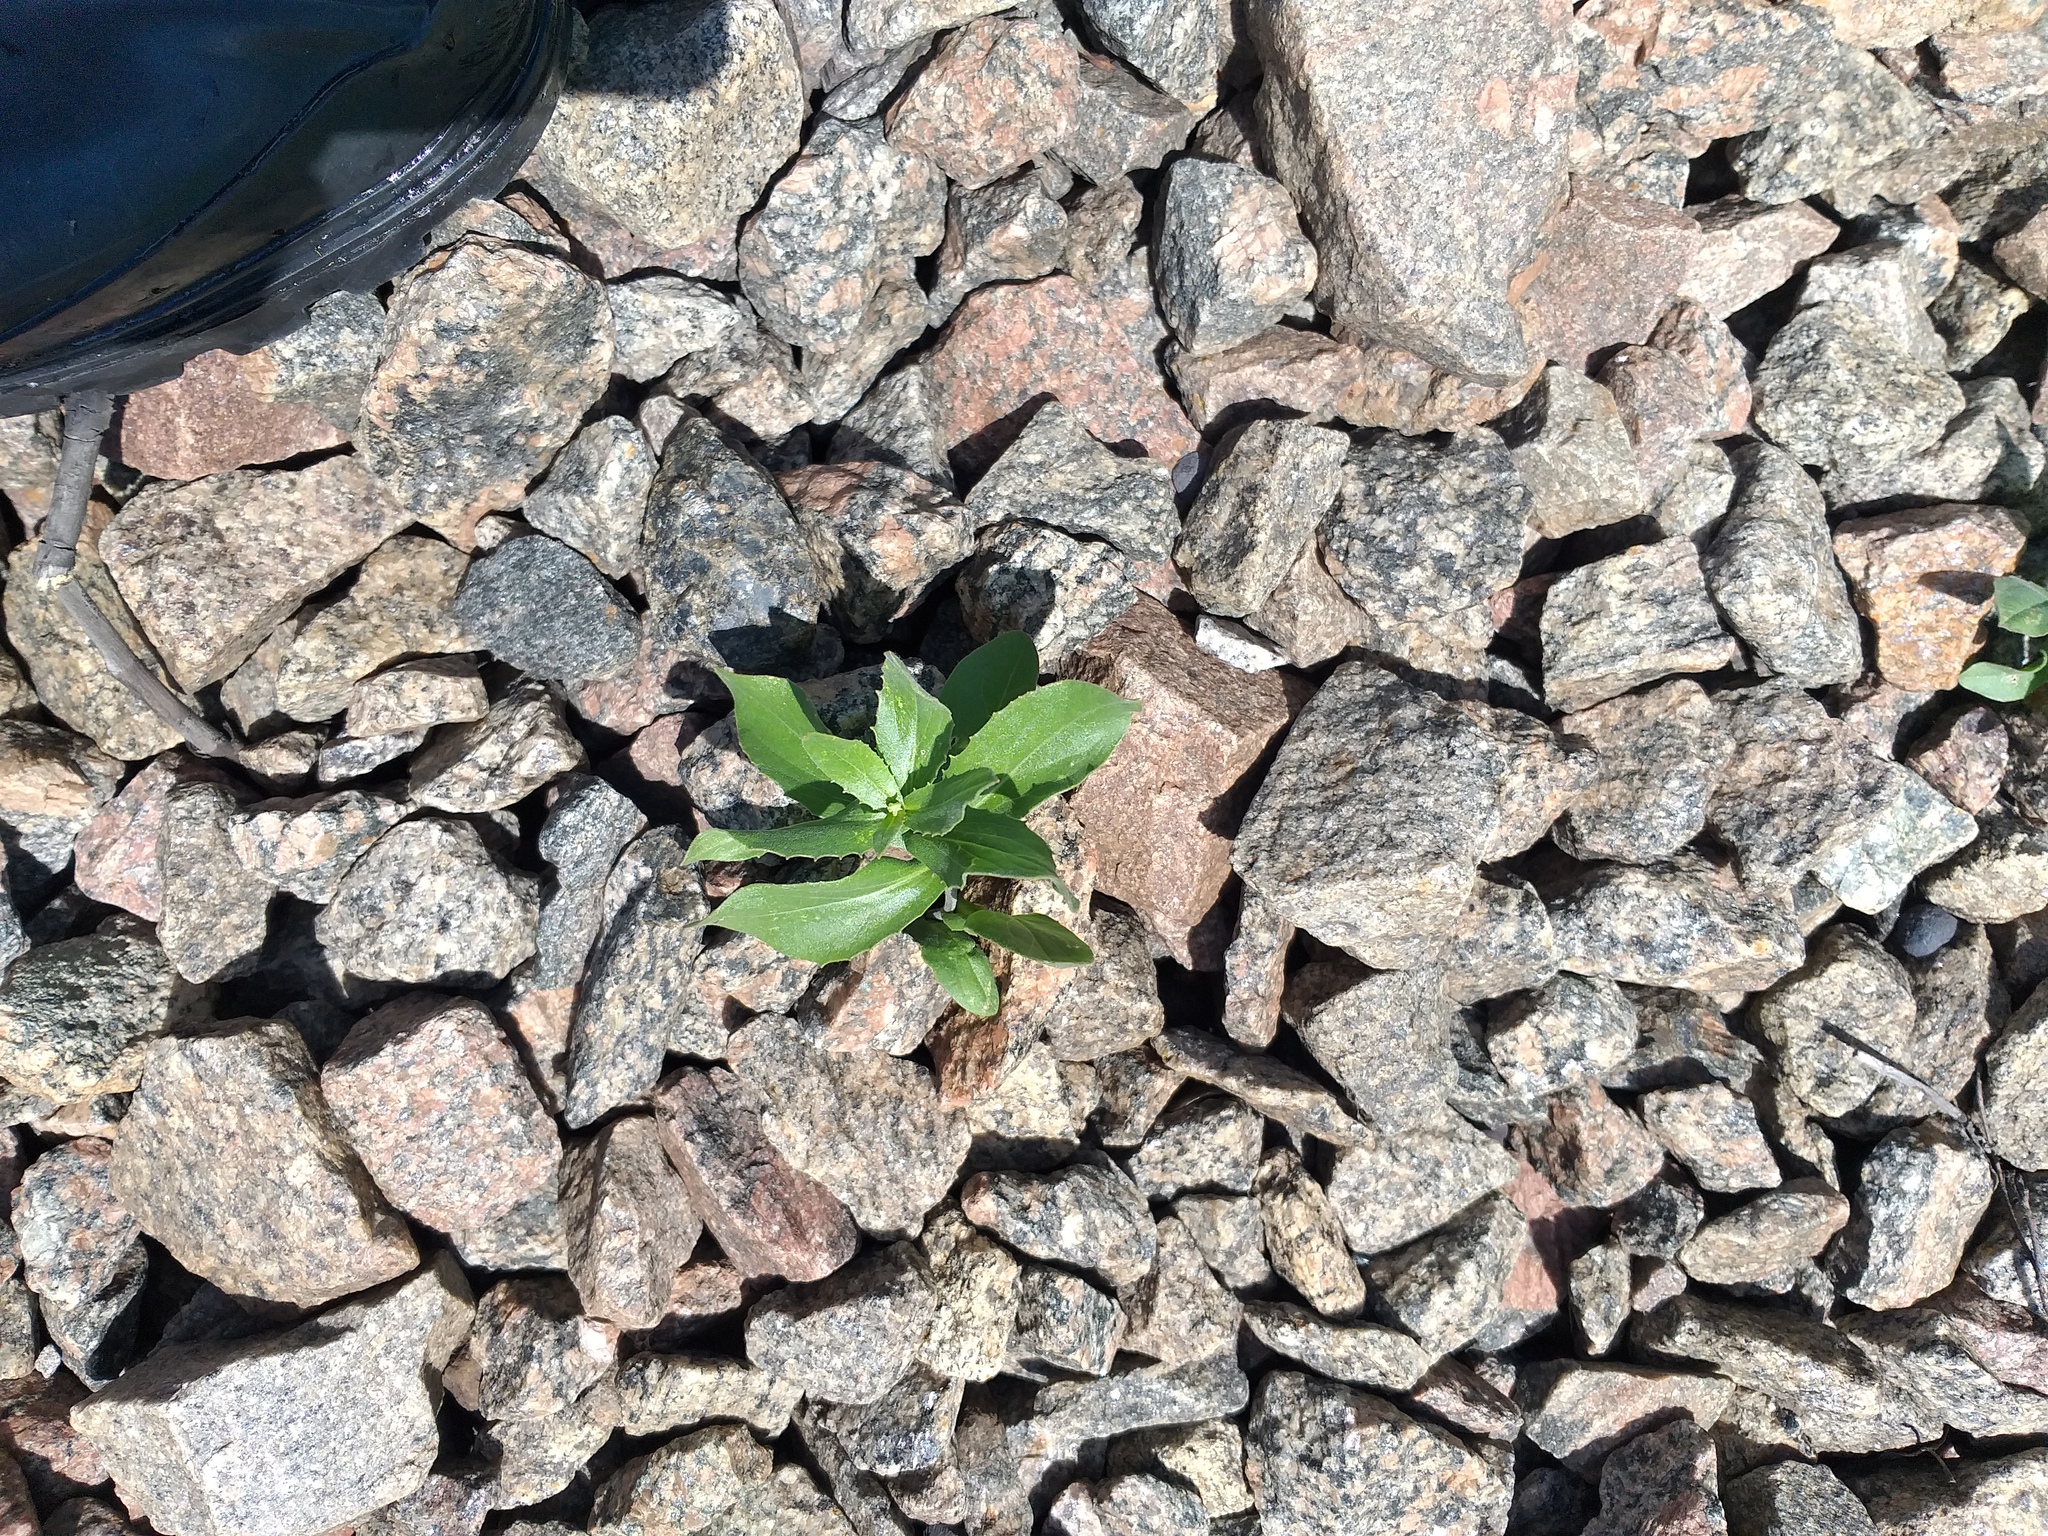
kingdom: Plantae
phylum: Tracheophyta
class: Magnoliopsida
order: Brassicales
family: Brassicaceae
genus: Lepidium
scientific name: Lepidium draba
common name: Hoary cress
